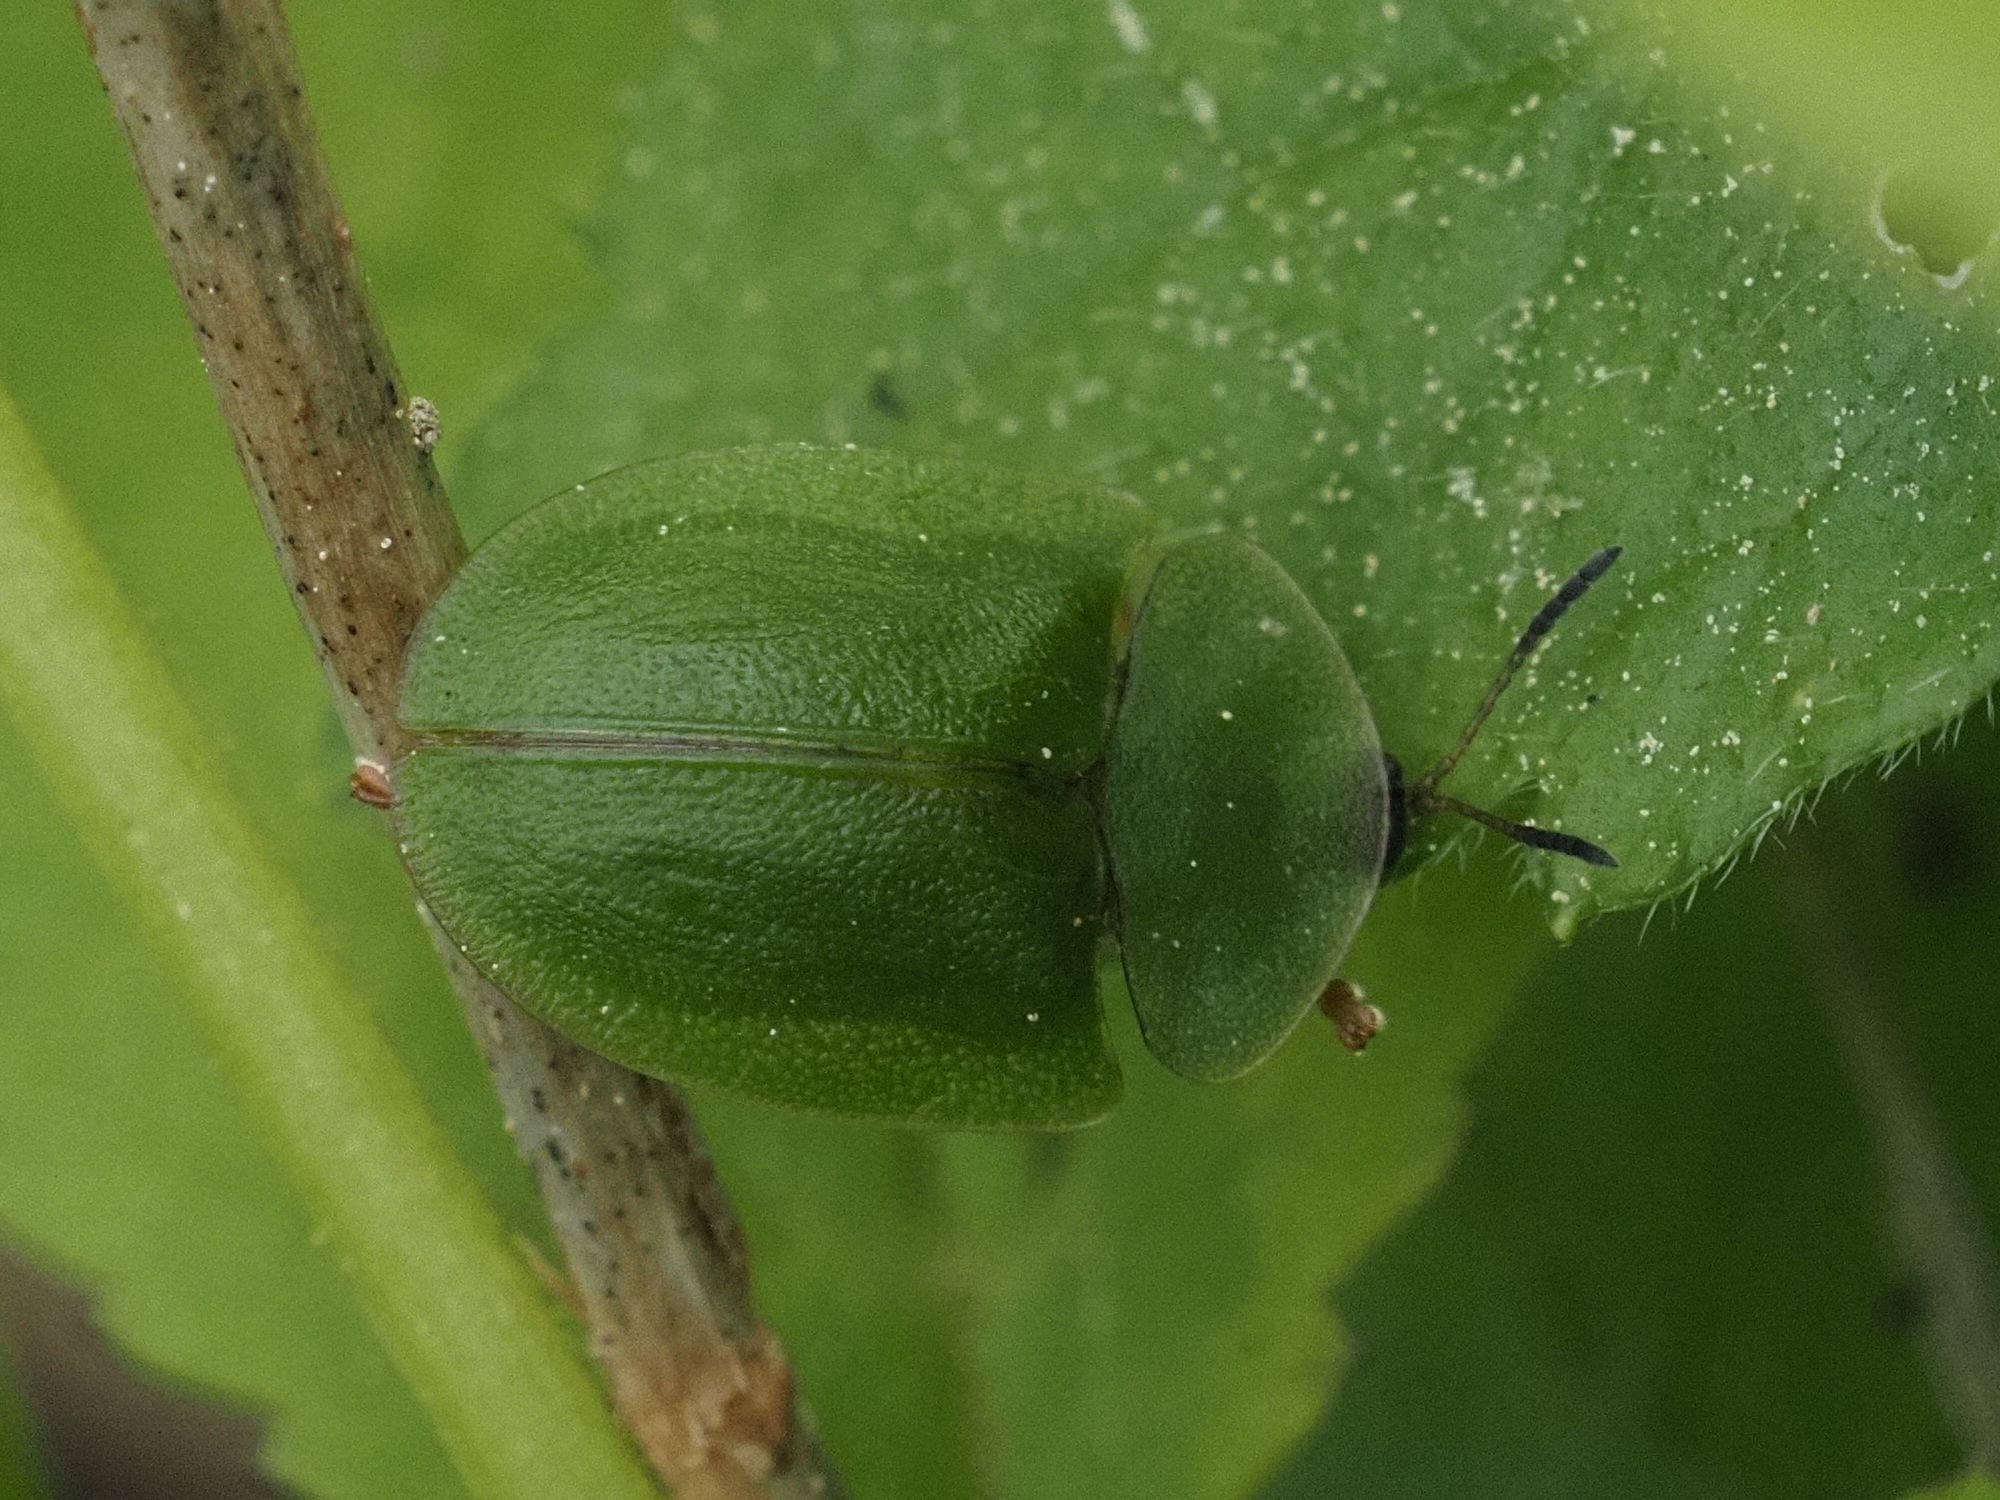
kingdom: Animalia
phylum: Arthropoda
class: Insecta
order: Coleoptera
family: Chrysomelidae
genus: Cassida
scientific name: Cassida viridis
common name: Green tortoise beetle
